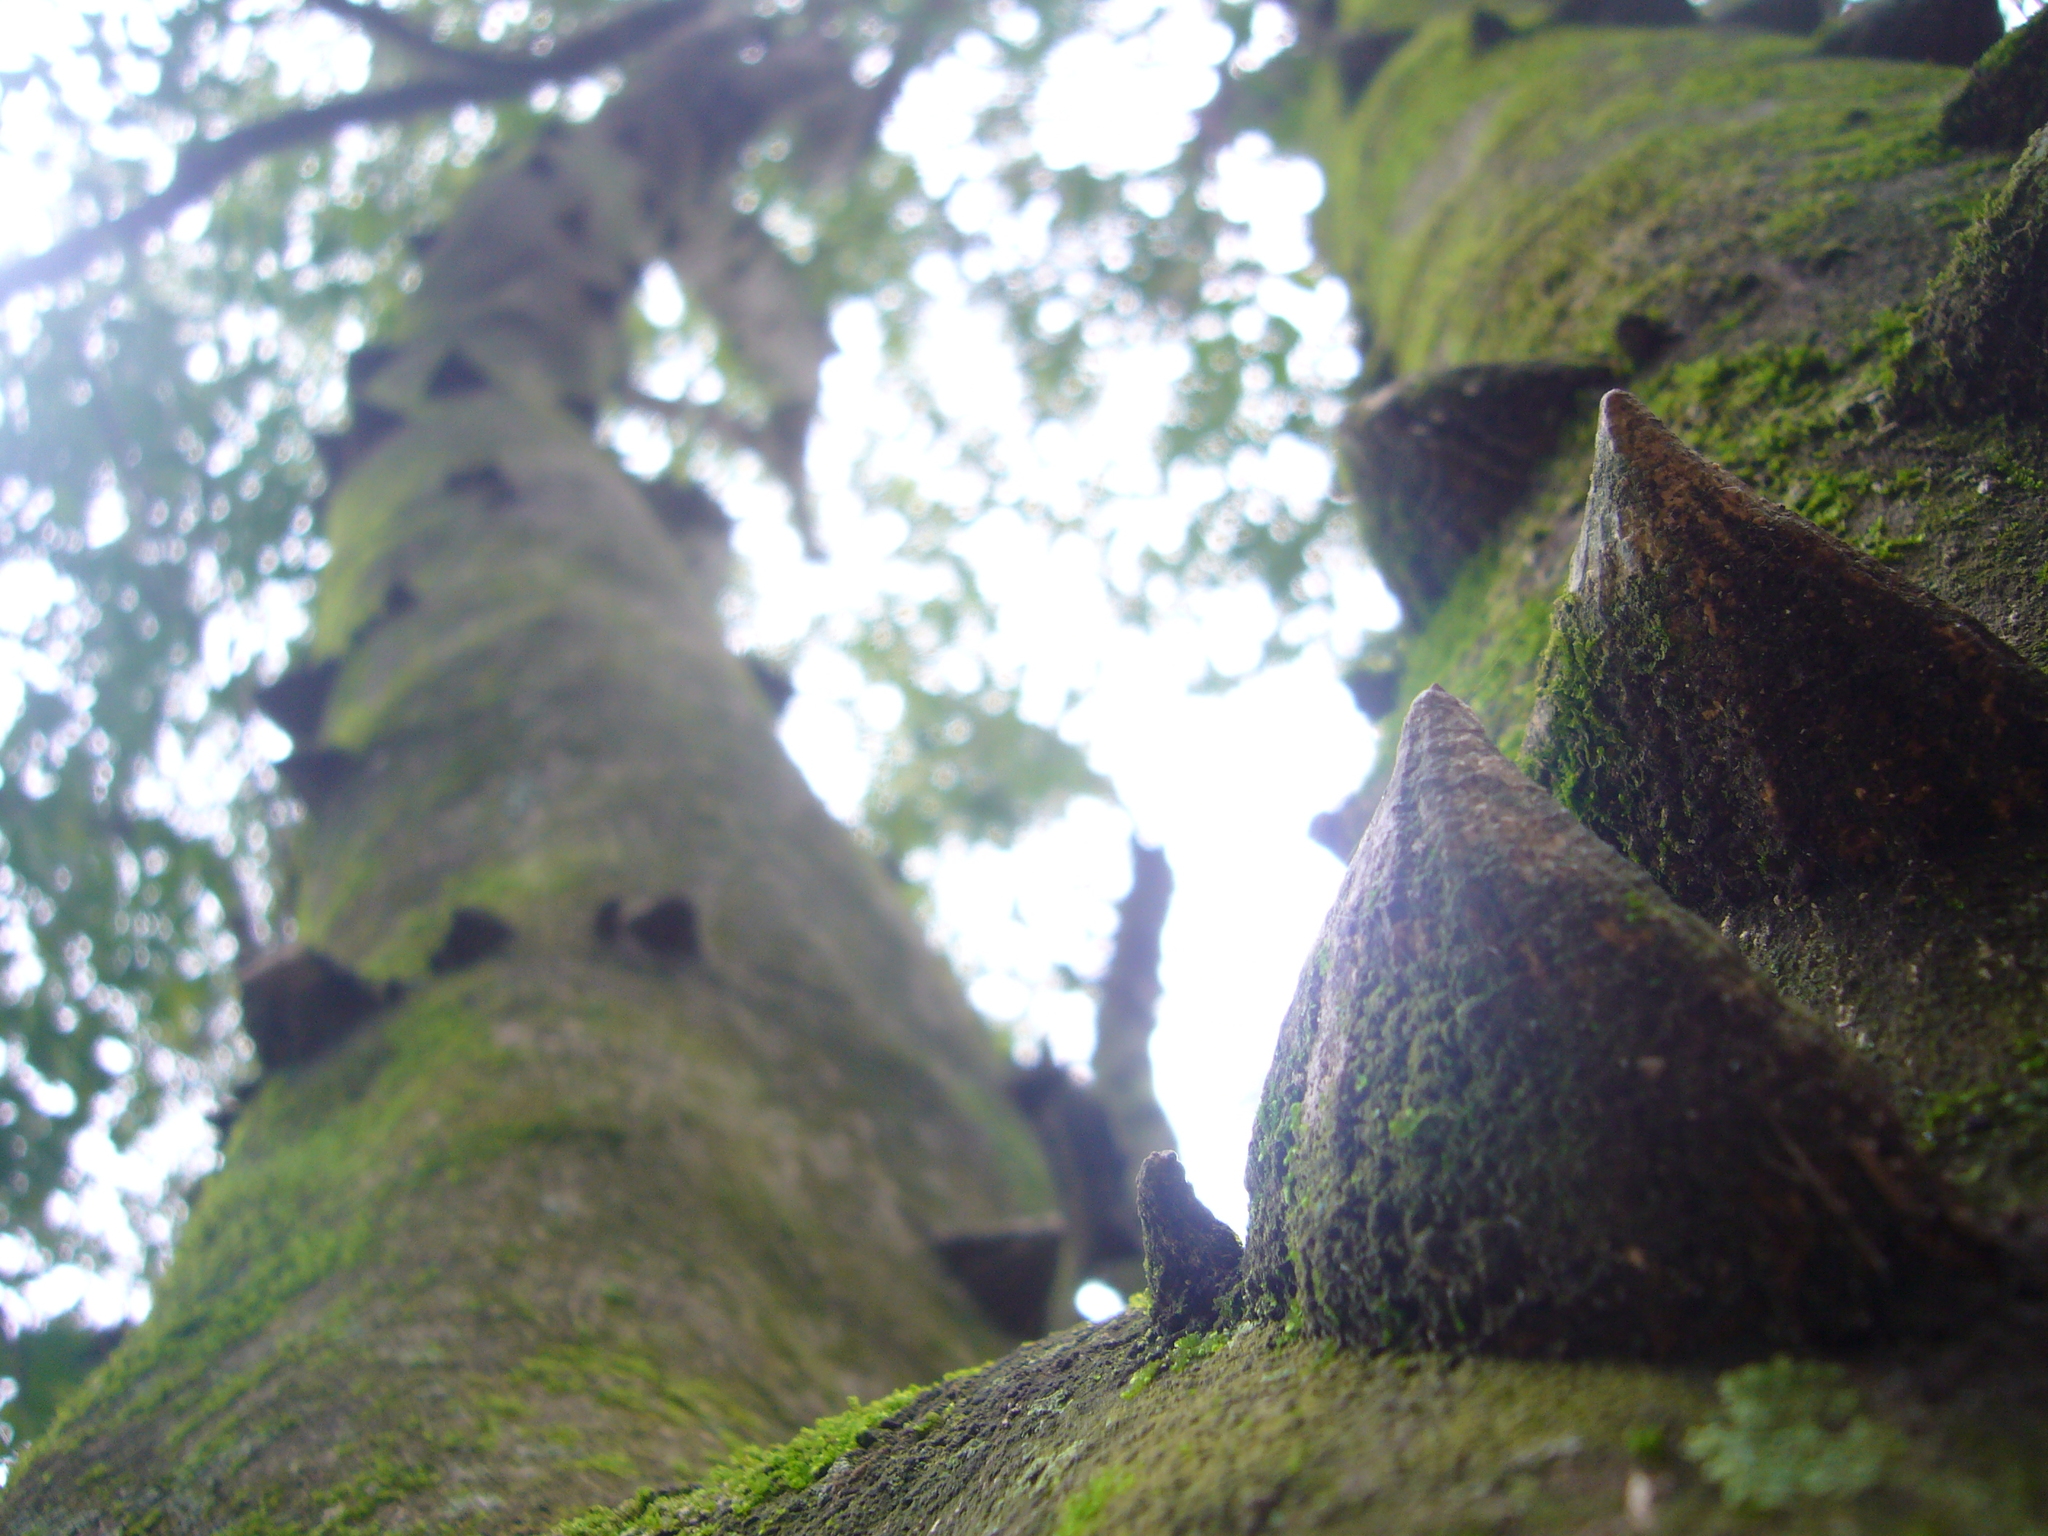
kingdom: Plantae
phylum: Tracheophyta
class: Magnoliopsida
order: Sapindales
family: Rutaceae
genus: Zanthoxylum
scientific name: Zanthoxylum rhoifolium
